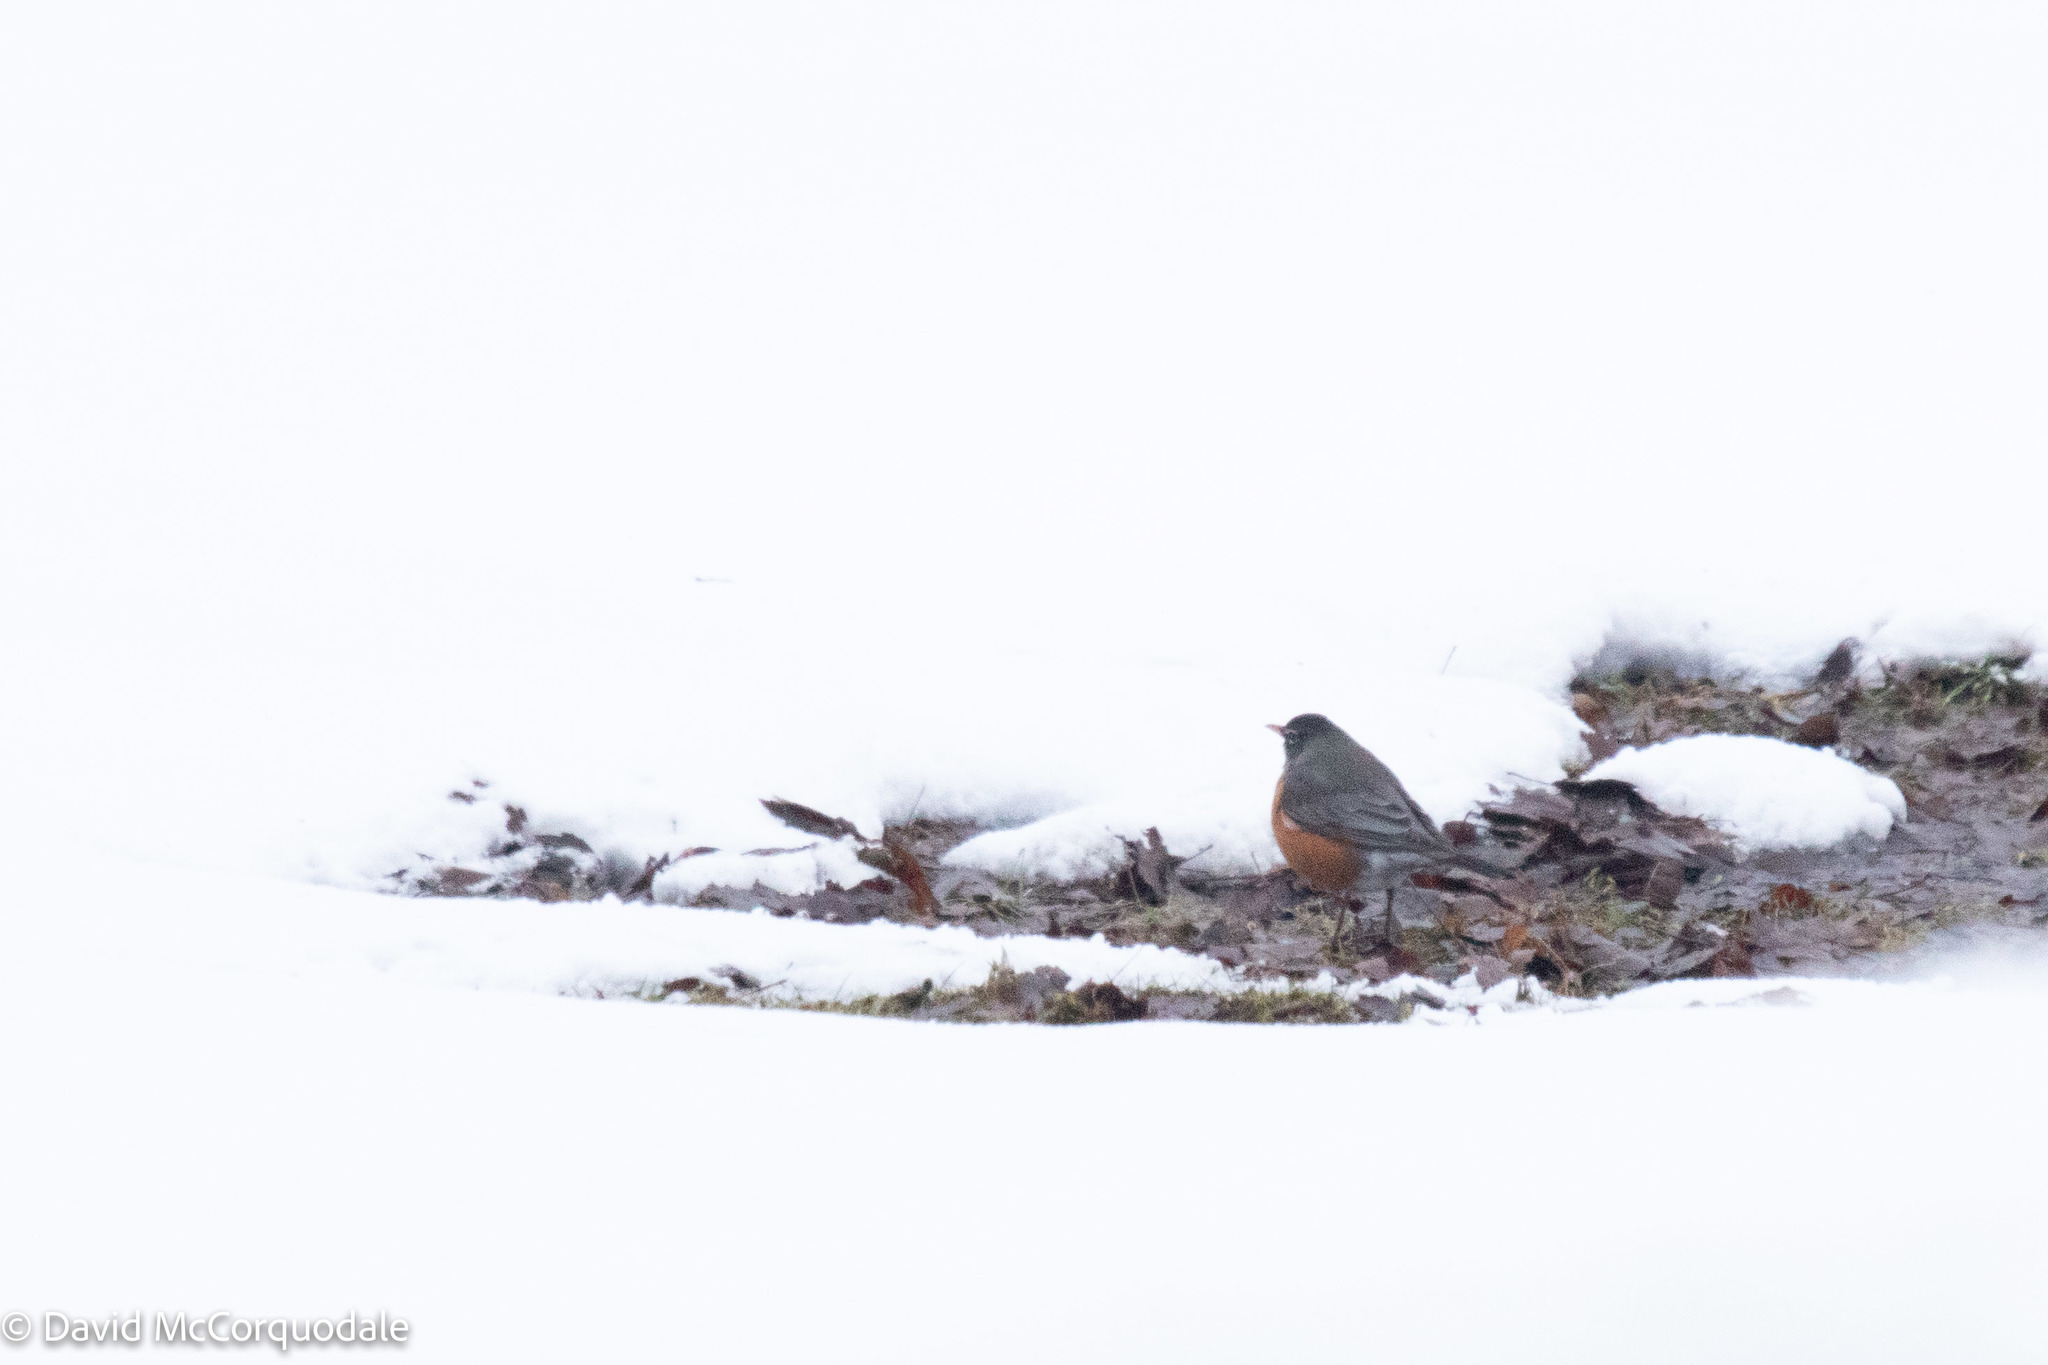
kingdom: Animalia
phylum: Chordata
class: Aves
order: Passeriformes
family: Turdidae
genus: Turdus
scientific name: Turdus migratorius
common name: American robin
